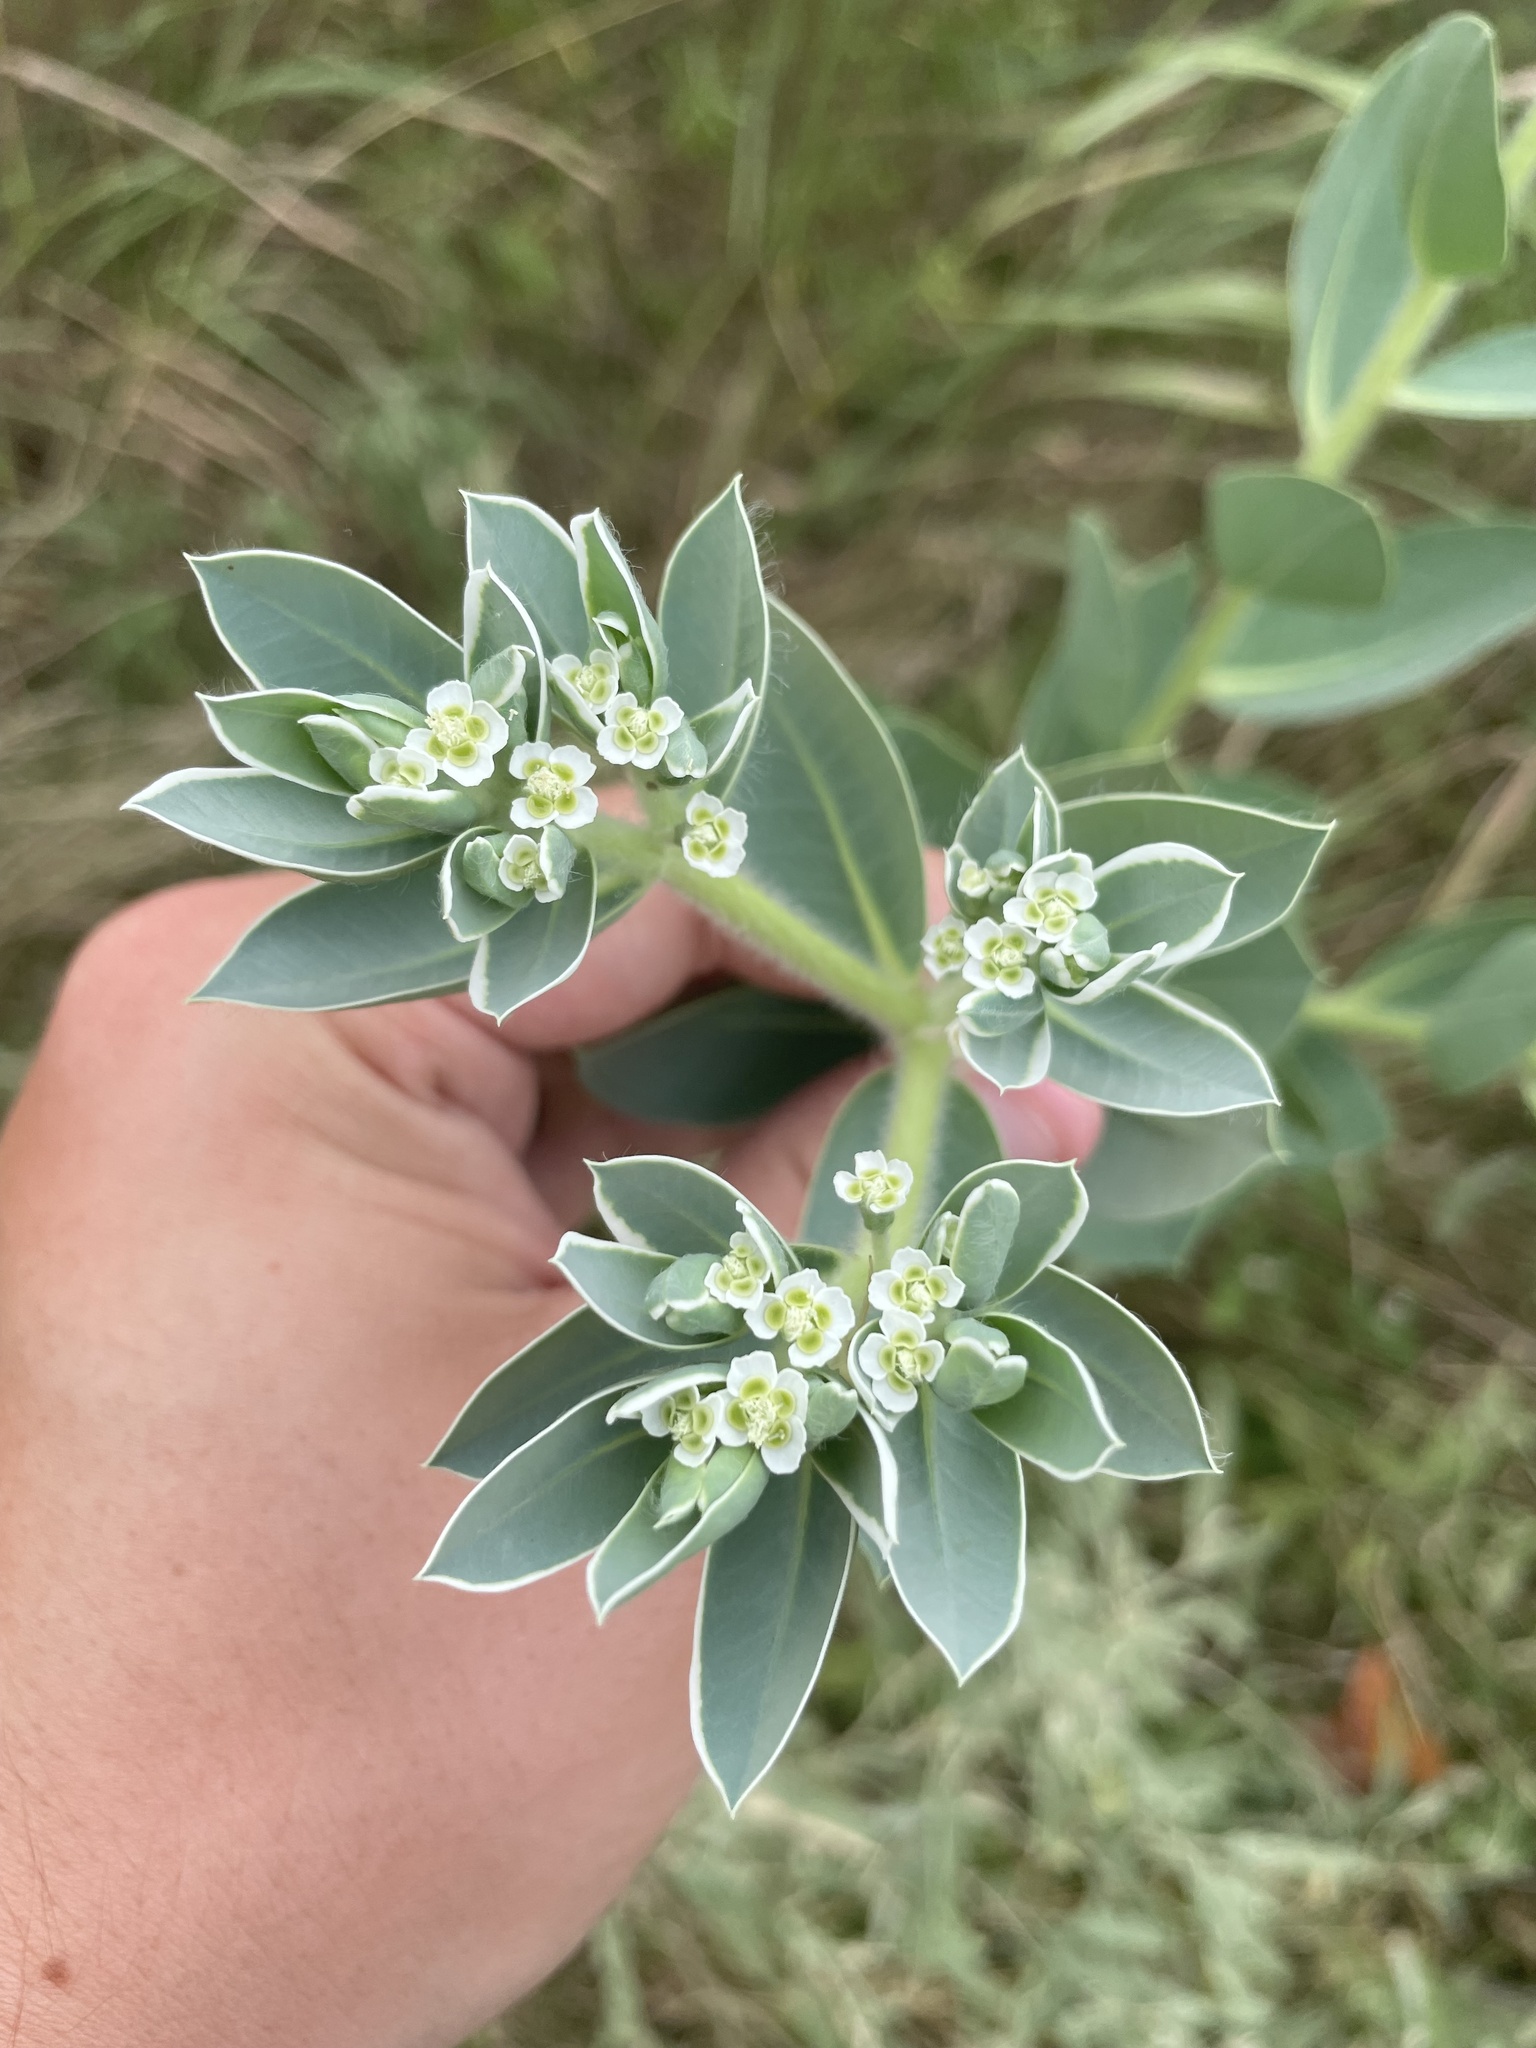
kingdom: Plantae
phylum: Tracheophyta
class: Magnoliopsida
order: Malpighiales
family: Euphorbiaceae
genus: Euphorbia
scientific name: Euphorbia marginata
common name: Ghostweed
